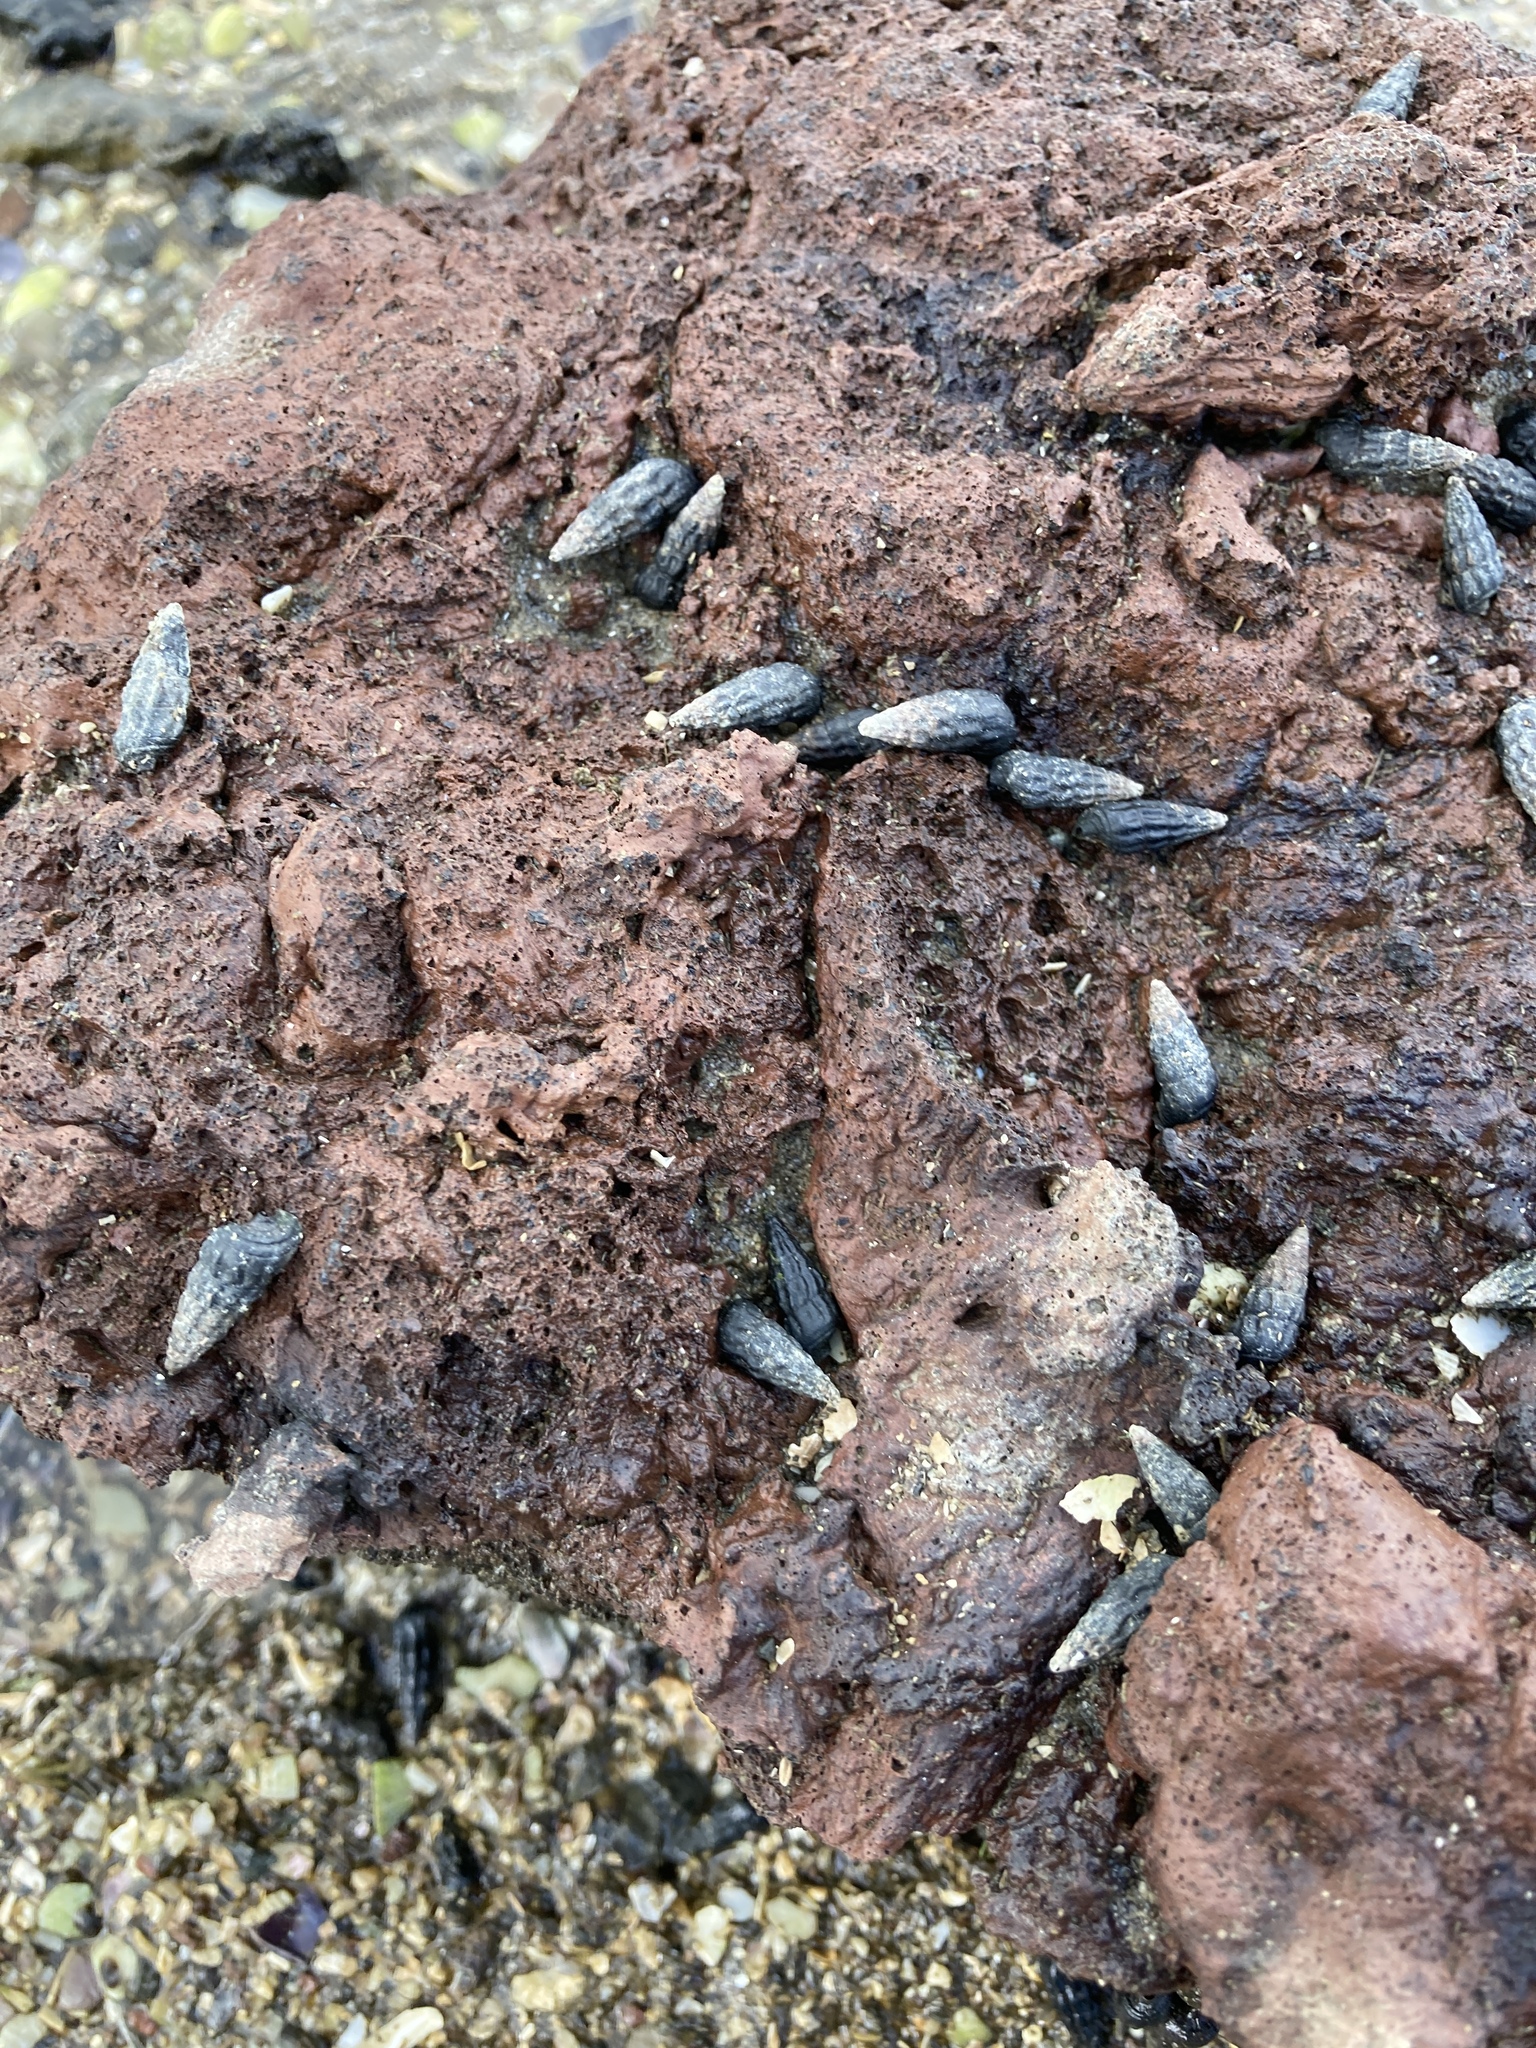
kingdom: Animalia
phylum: Mollusca
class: Gastropoda
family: Batillariidae
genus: Zeacumantus
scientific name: Zeacumantus subcarinatus
